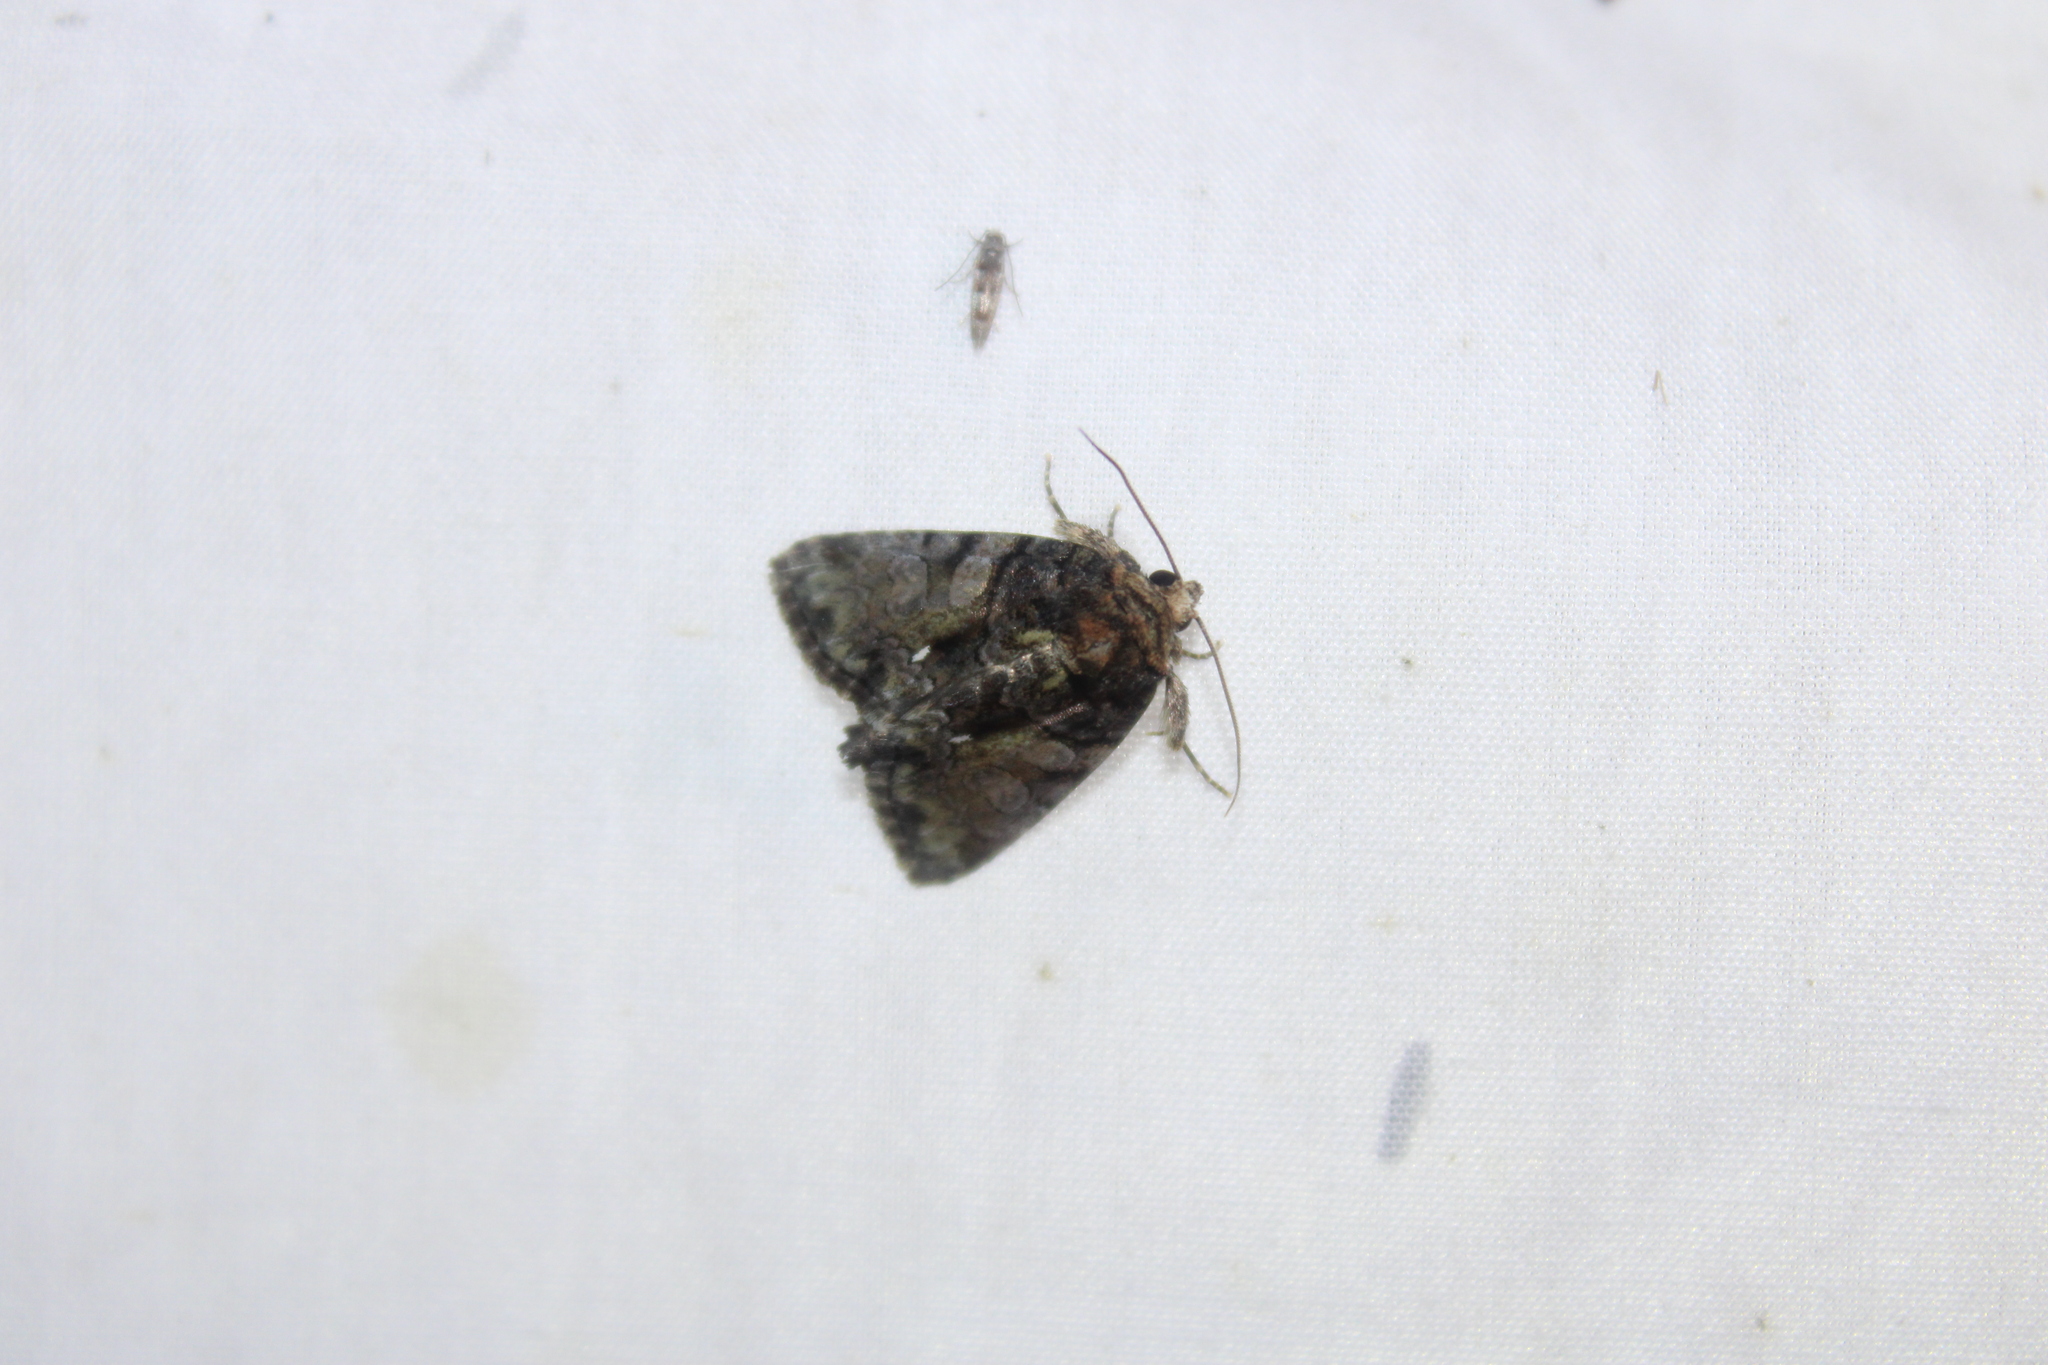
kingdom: Animalia
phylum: Arthropoda
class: Insecta
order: Lepidoptera
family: Noctuidae
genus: Chytonix
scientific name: Chytonix palliatricula
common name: Cloaked marvel
